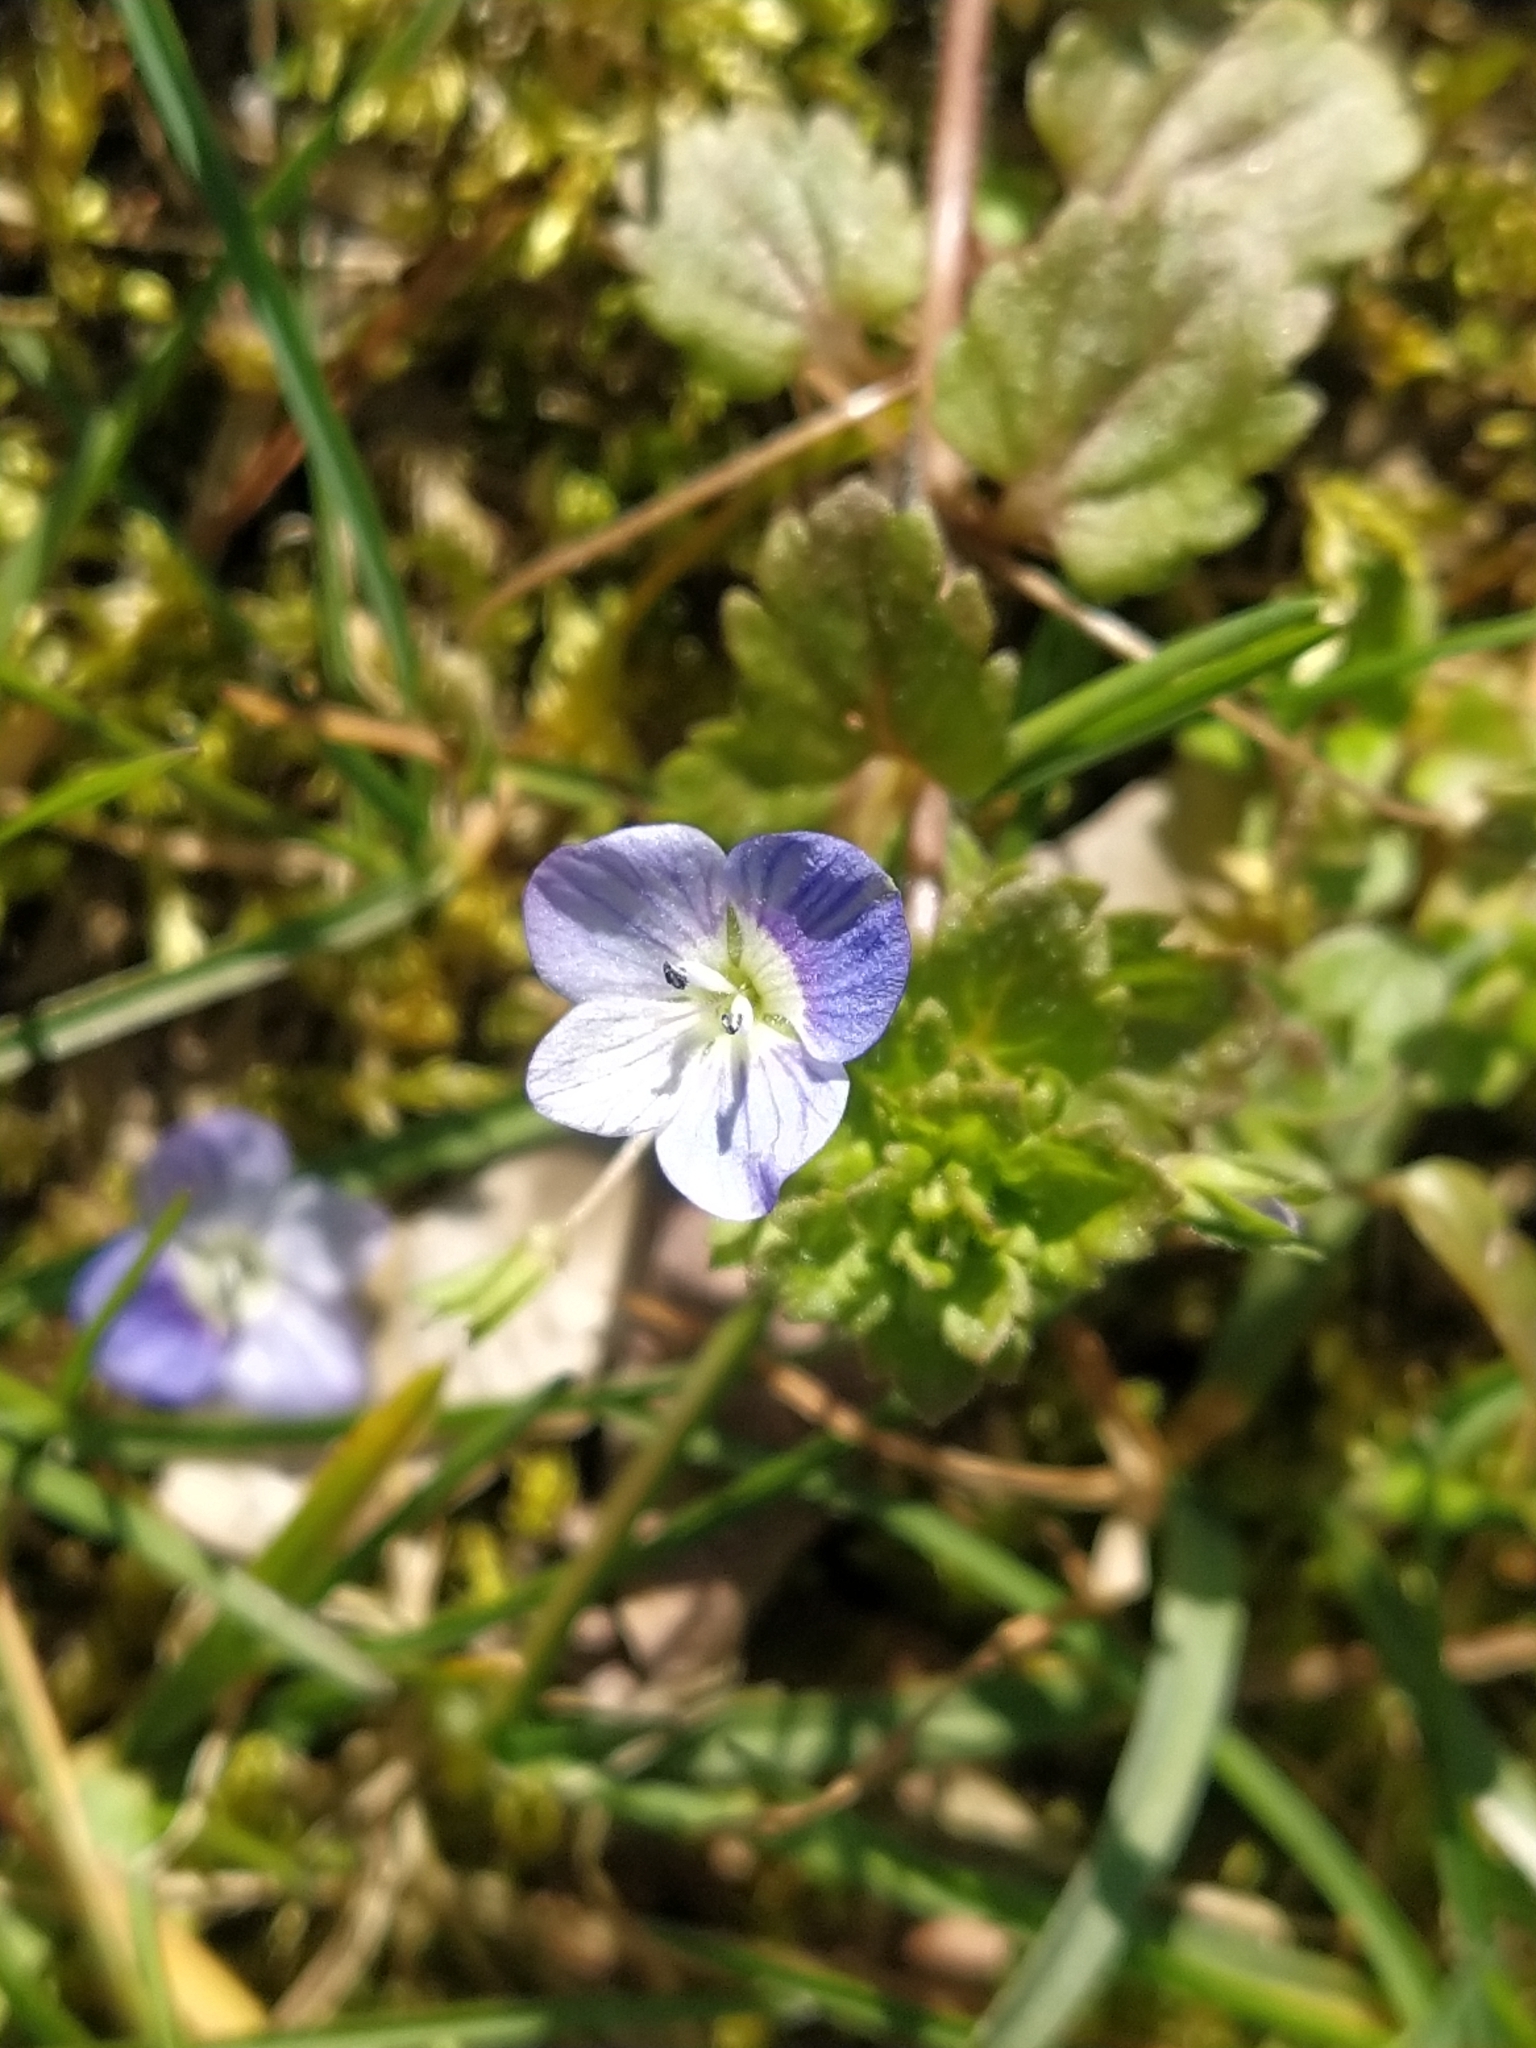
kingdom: Plantae
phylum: Tracheophyta
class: Magnoliopsida
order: Lamiales
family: Plantaginaceae
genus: Veronica
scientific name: Veronica persica
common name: Common field-speedwell
